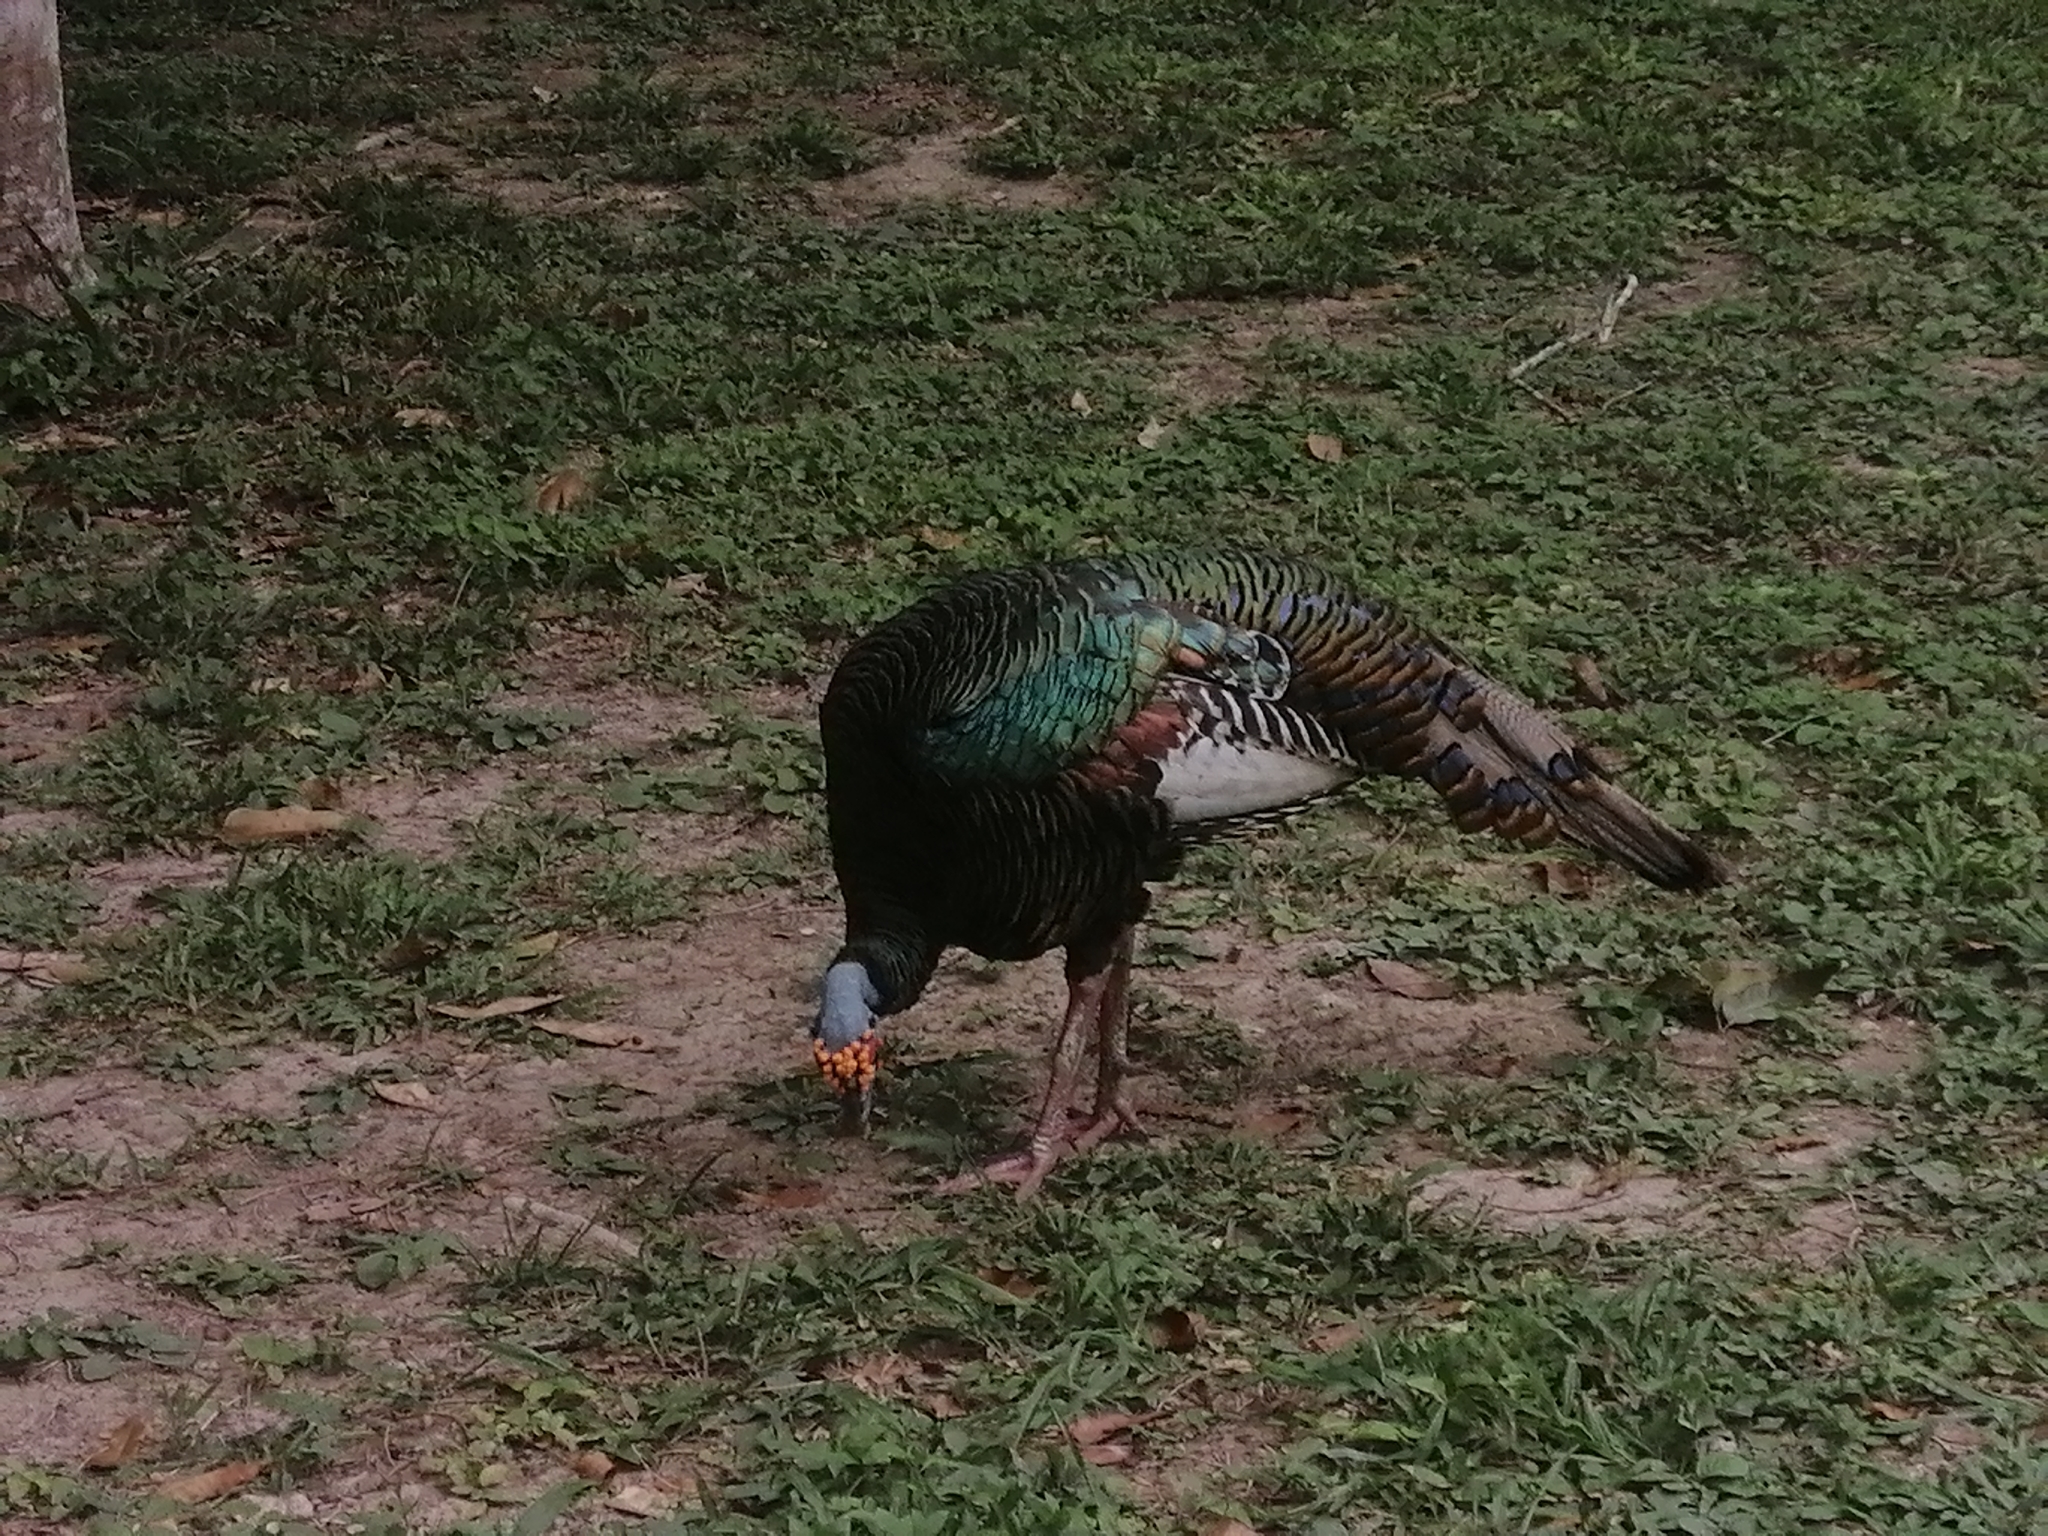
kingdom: Animalia
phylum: Chordata
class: Aves
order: Galliformes
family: Phasianidae
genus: Meleagris
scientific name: Meleagris ocellata
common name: Ocellated turkey
